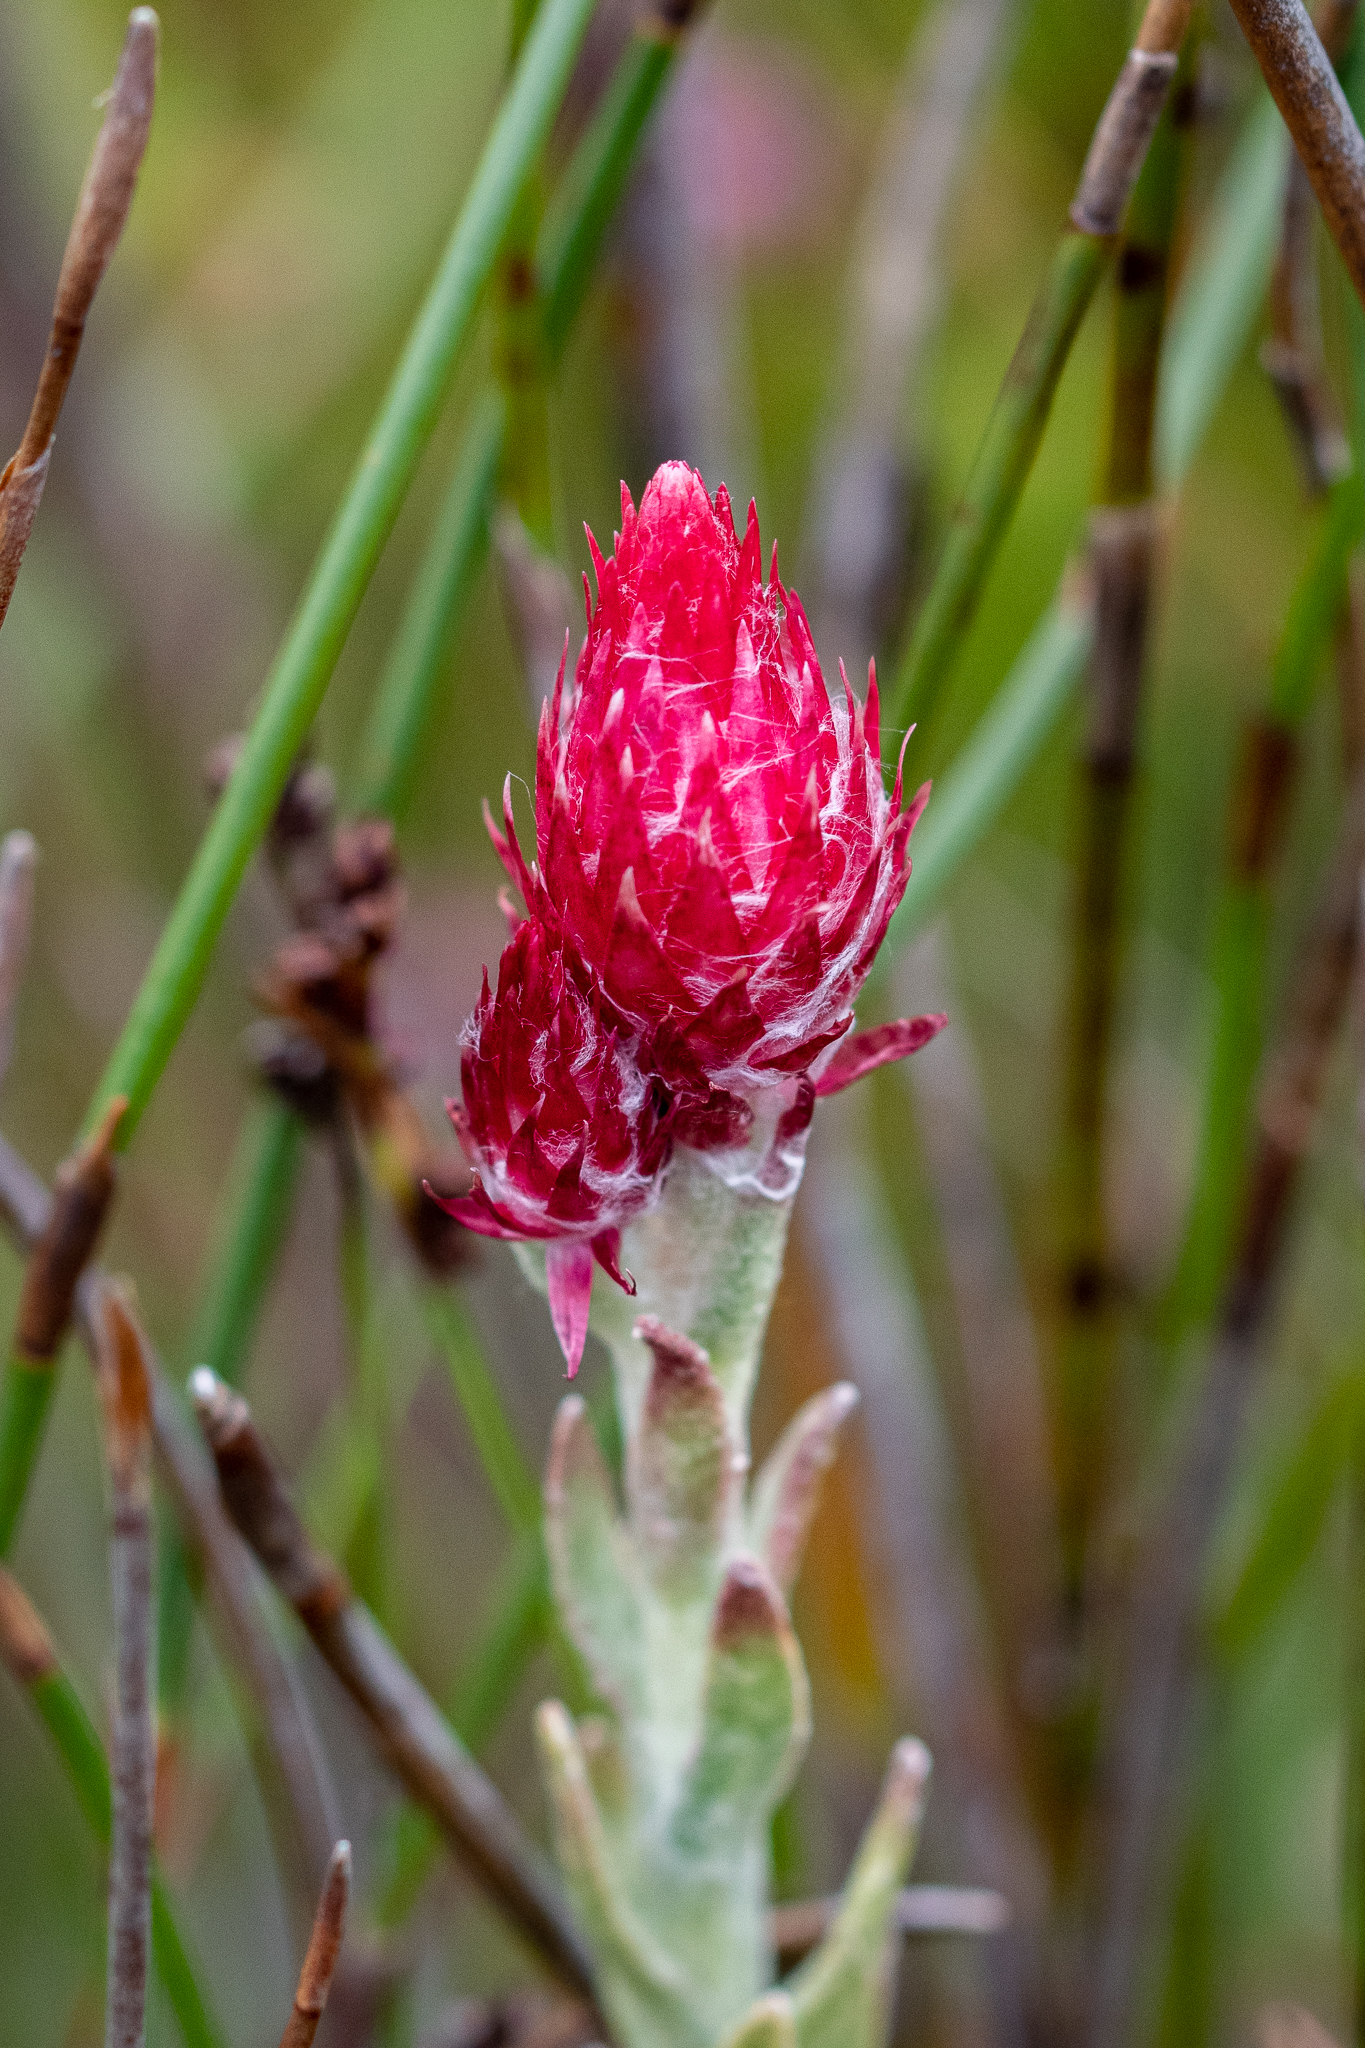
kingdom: Plantae
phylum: Tracheophyta
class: Magnoliopsida
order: Asterales
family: Asteraceae
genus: Syncarpha
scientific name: Syncarpha zeyheri
